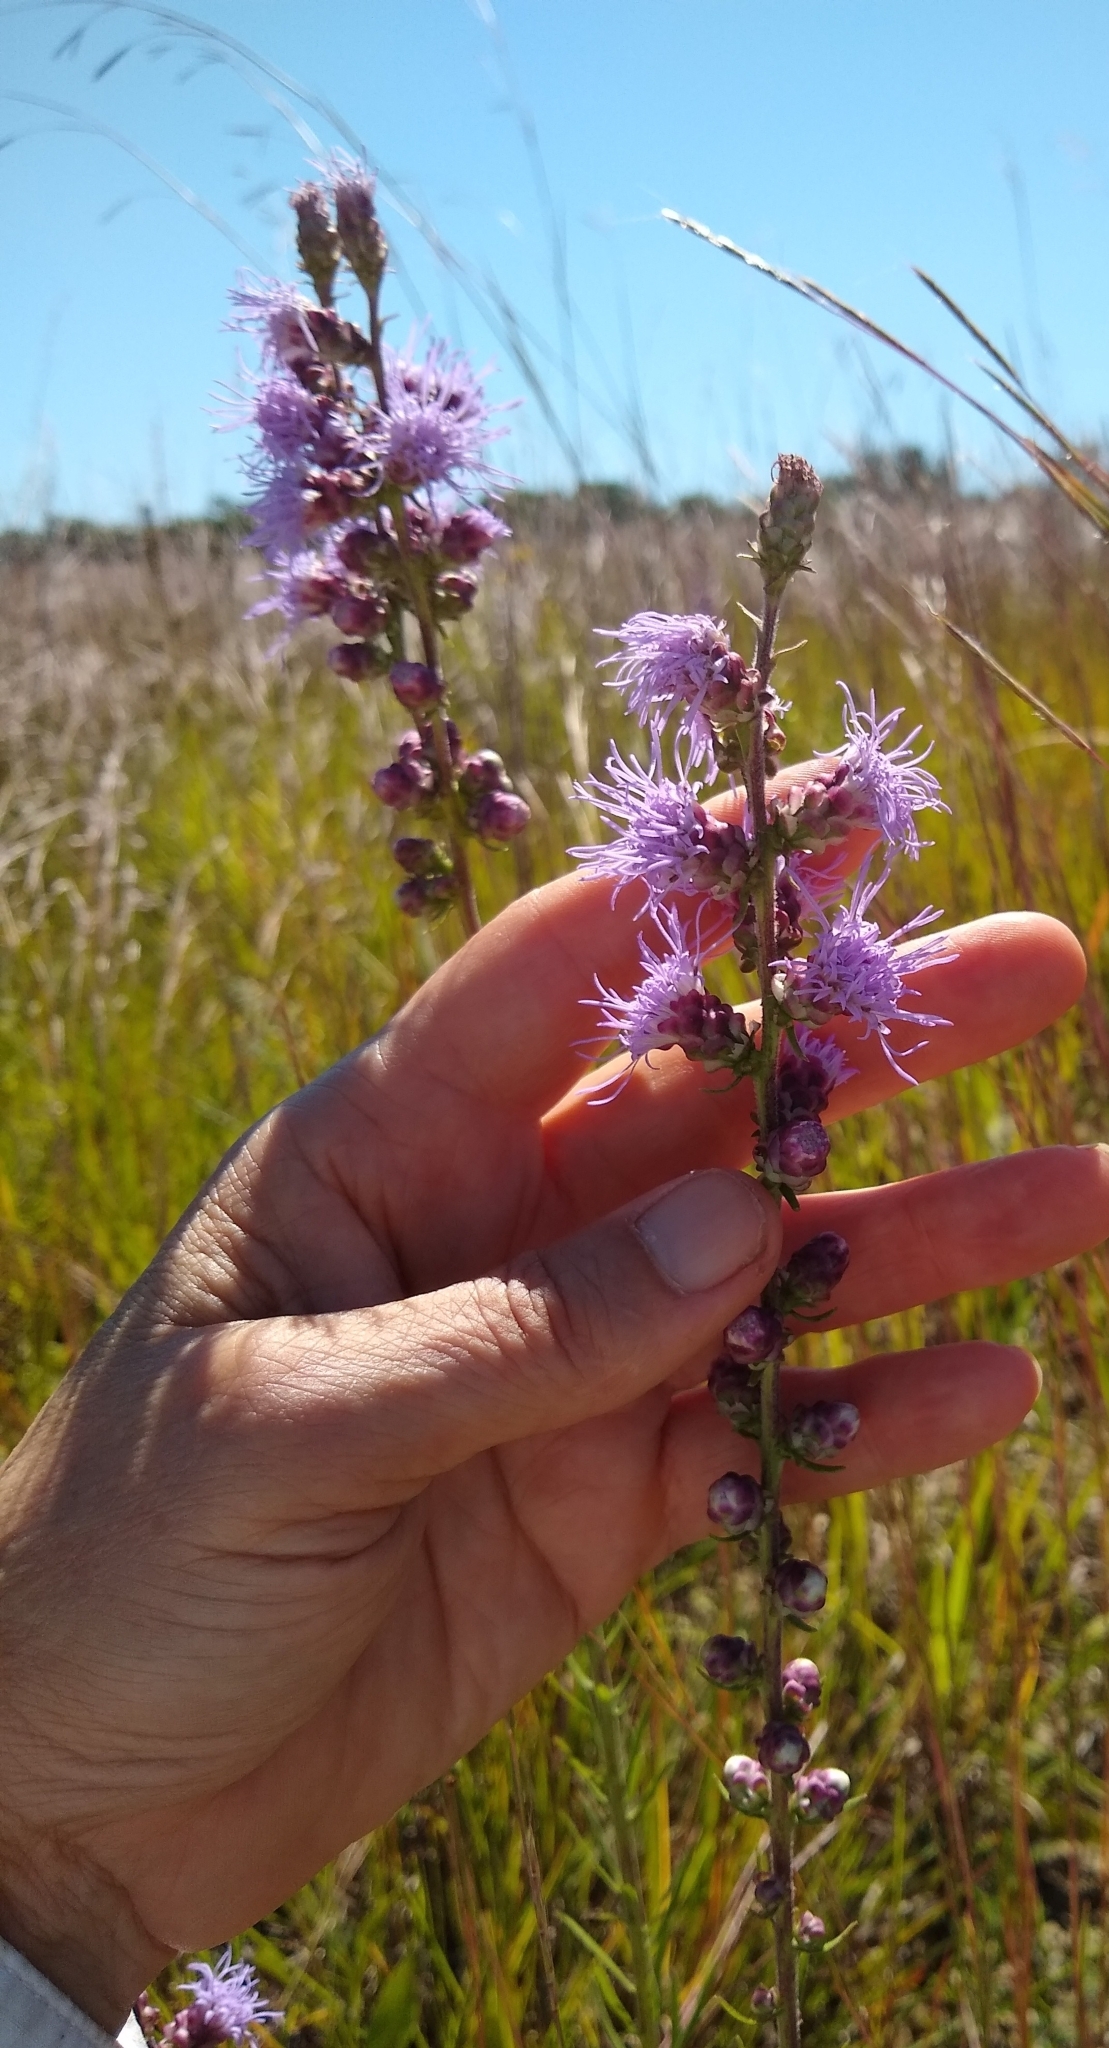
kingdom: Plantae
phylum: Tracheophyta
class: Magnoliopsida
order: Asterales
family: Asteraceae
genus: Liatris
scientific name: Liatris aspera
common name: Lacerate blazing-star
